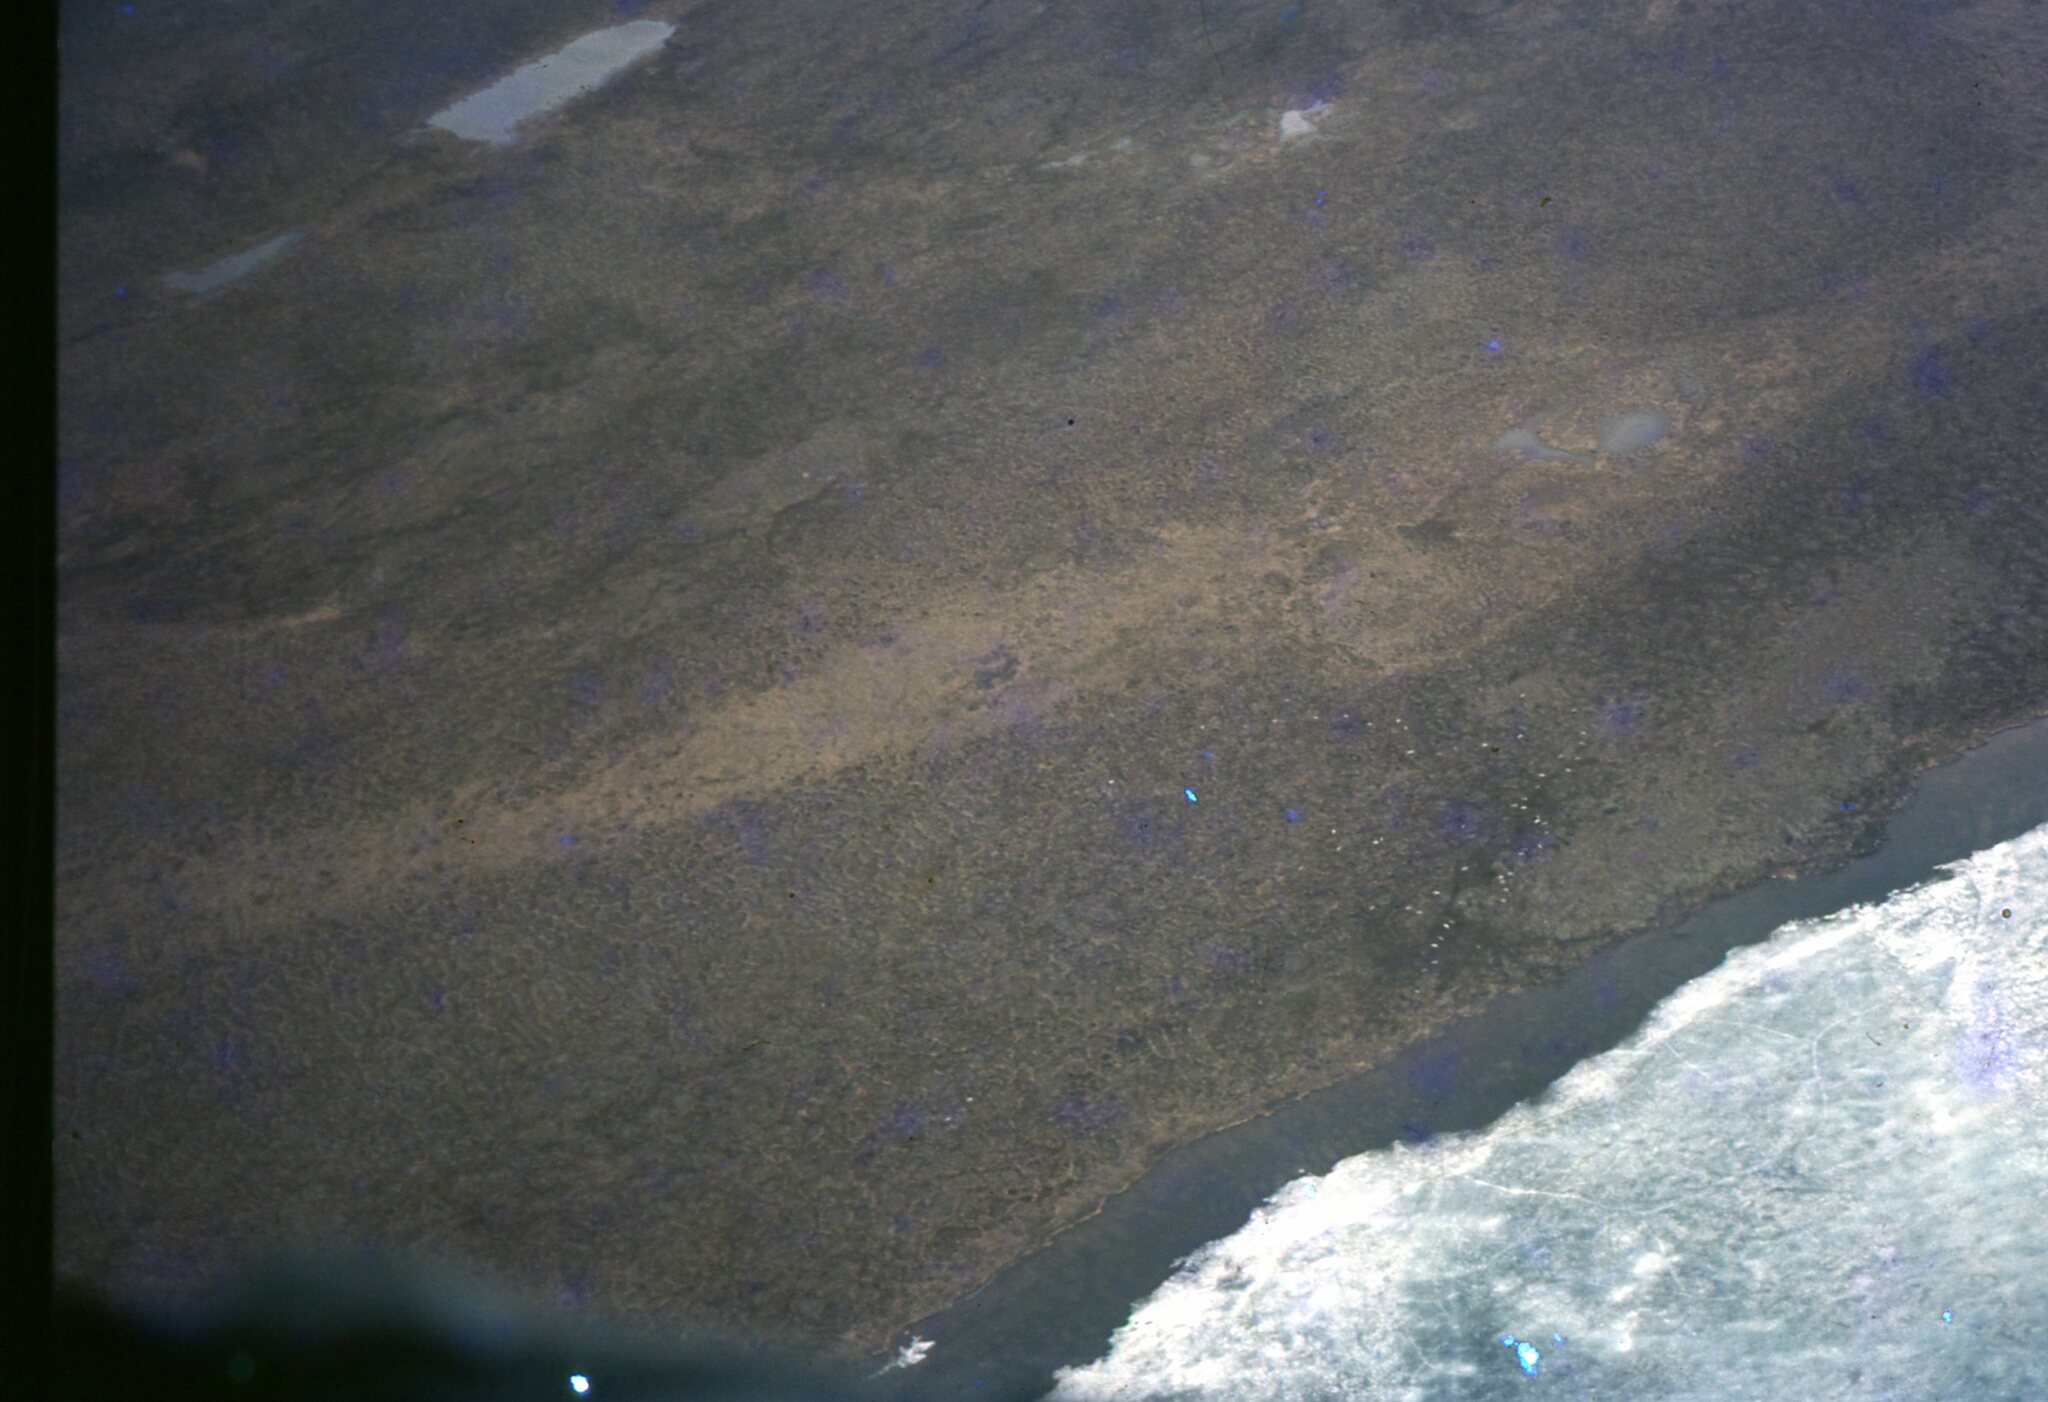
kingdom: Animalia
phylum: Chordata
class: Mammalia
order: Artiodactyla
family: Cervidae
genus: Rangifer
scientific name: Rangifer tarandus
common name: Reindeer
